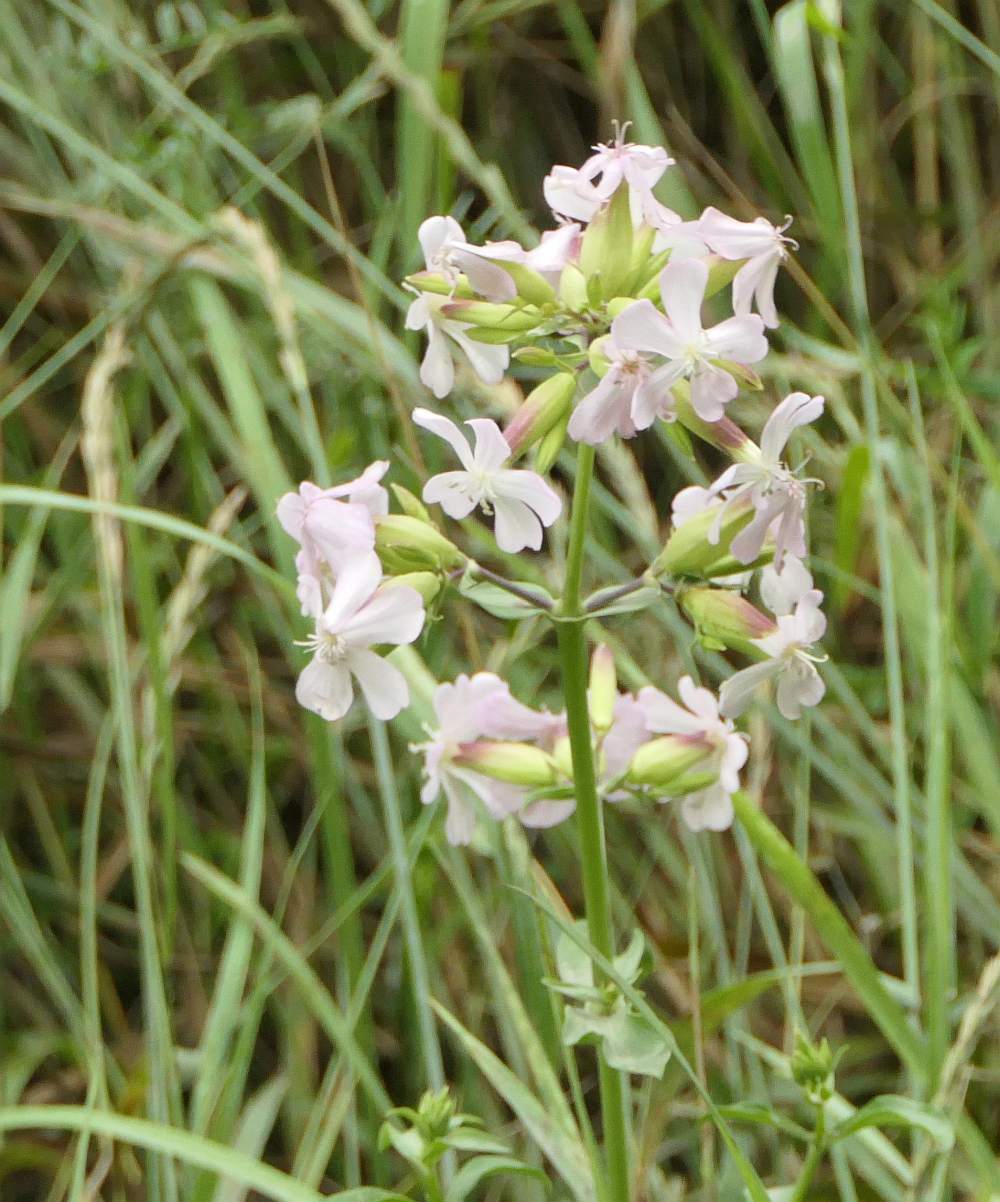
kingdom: Plantae
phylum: Tracheophyta
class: Magnoliopsida
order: Caryophyllales
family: Caryophyllaceae
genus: Saponaria
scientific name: Saponaria officinalis
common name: Soapwort
